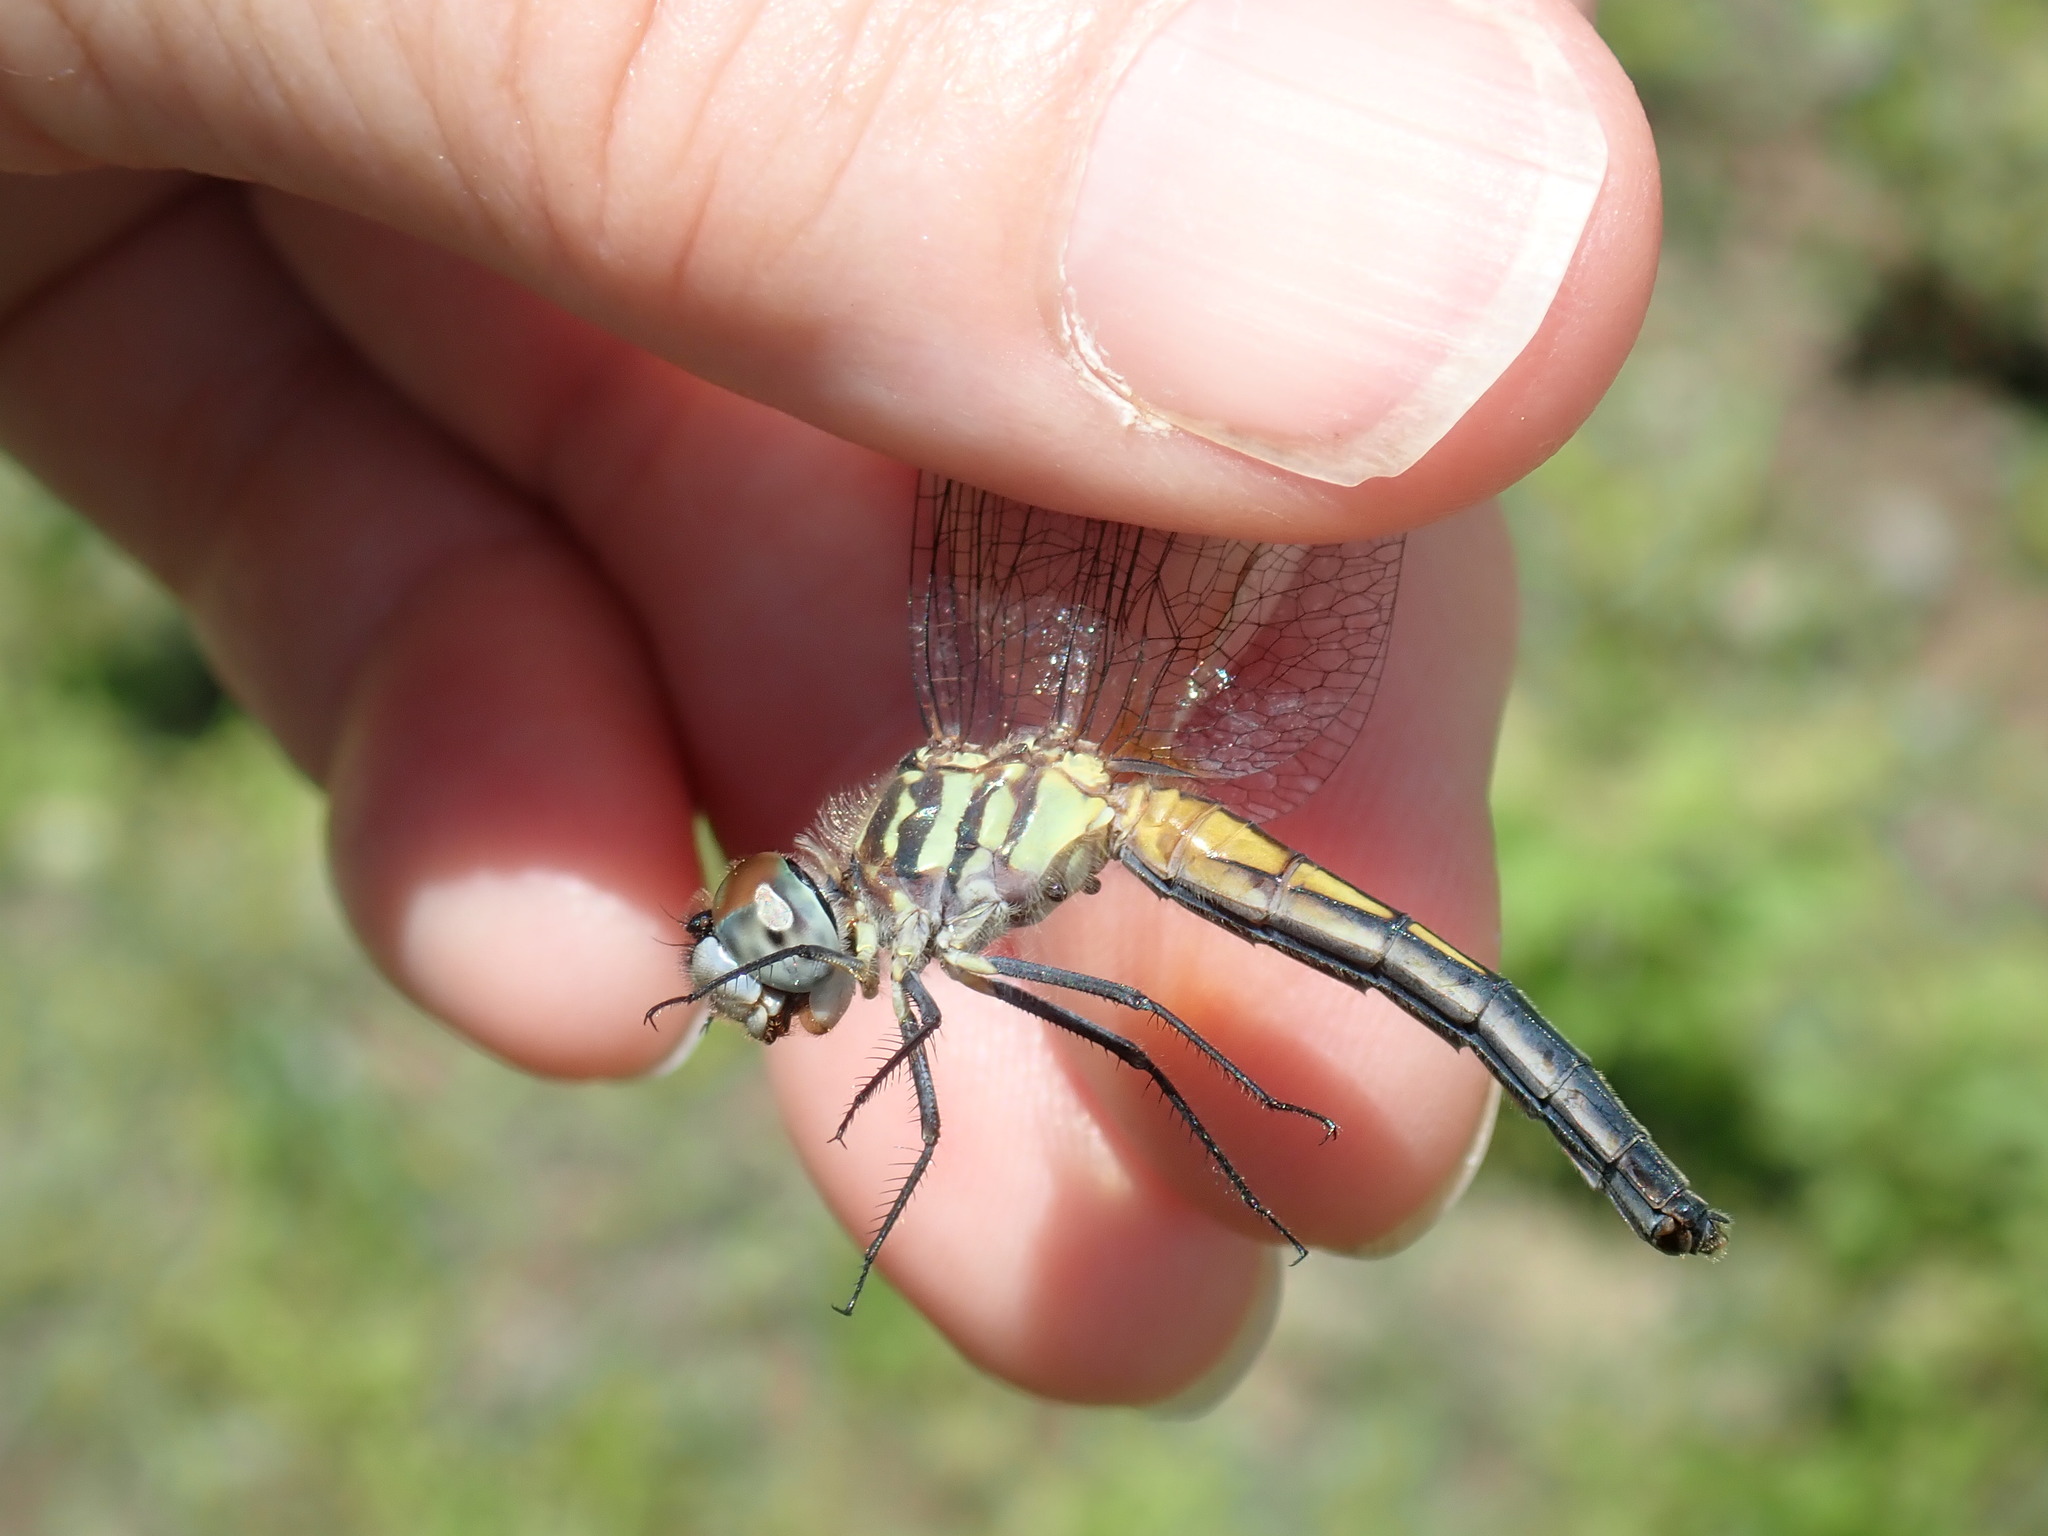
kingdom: Animalia
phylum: Arthropoda
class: Insecta
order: Odonata
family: Libellulidae
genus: Pachydiplax
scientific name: Pachydiplax longipennis
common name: Blue dasher
